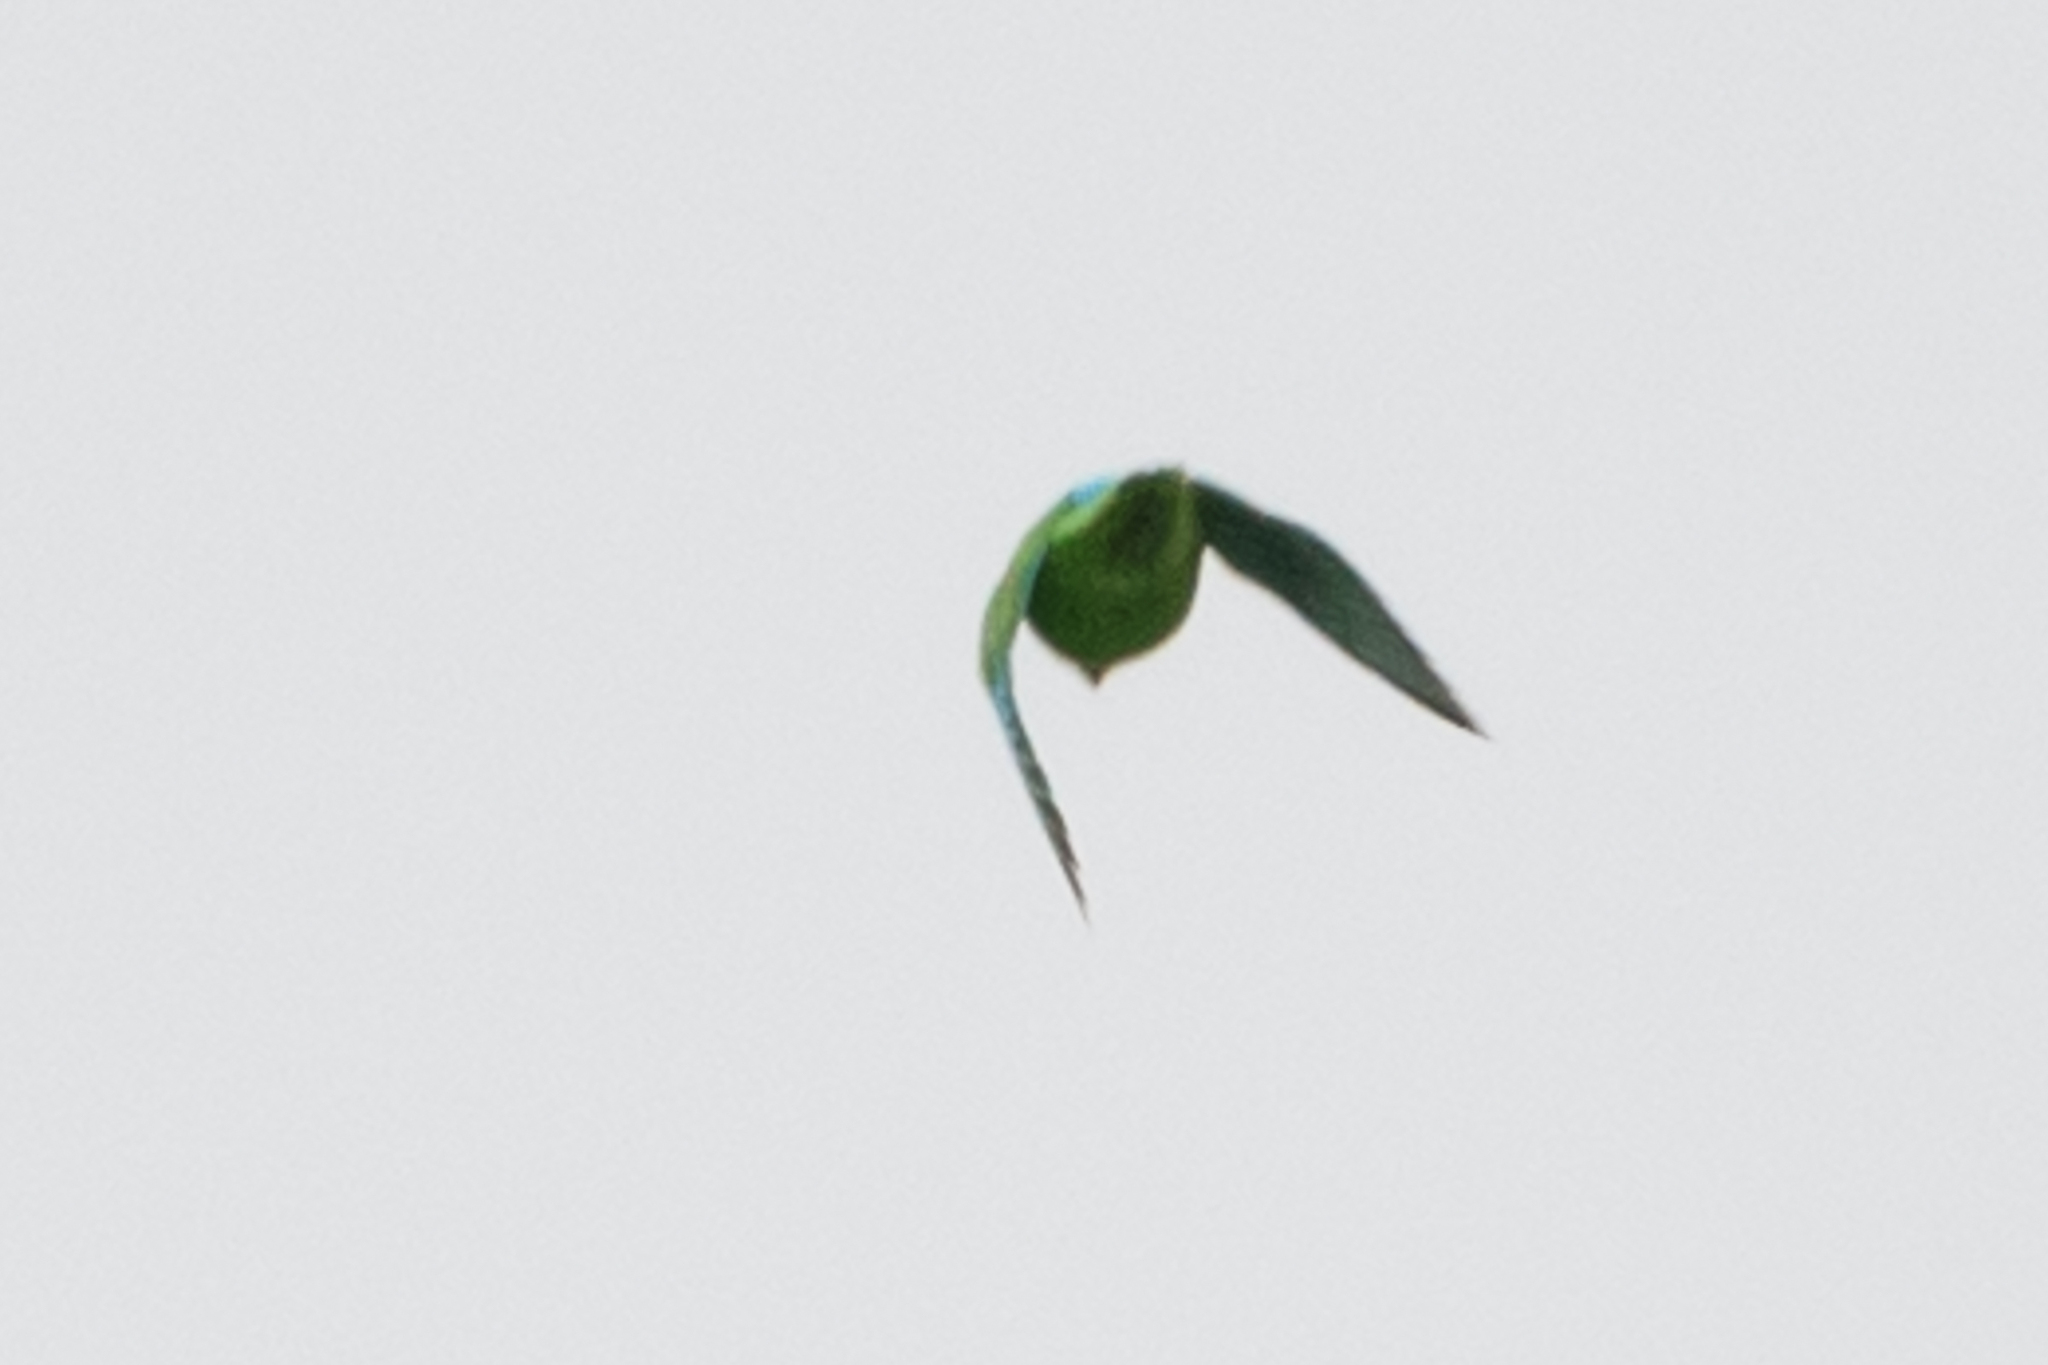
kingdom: Animalia
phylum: Chordata
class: Aves
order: Psittaciformes
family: Psittacidae
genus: Forpus
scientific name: Forpus cyanopygius
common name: Mexican parrotlet
